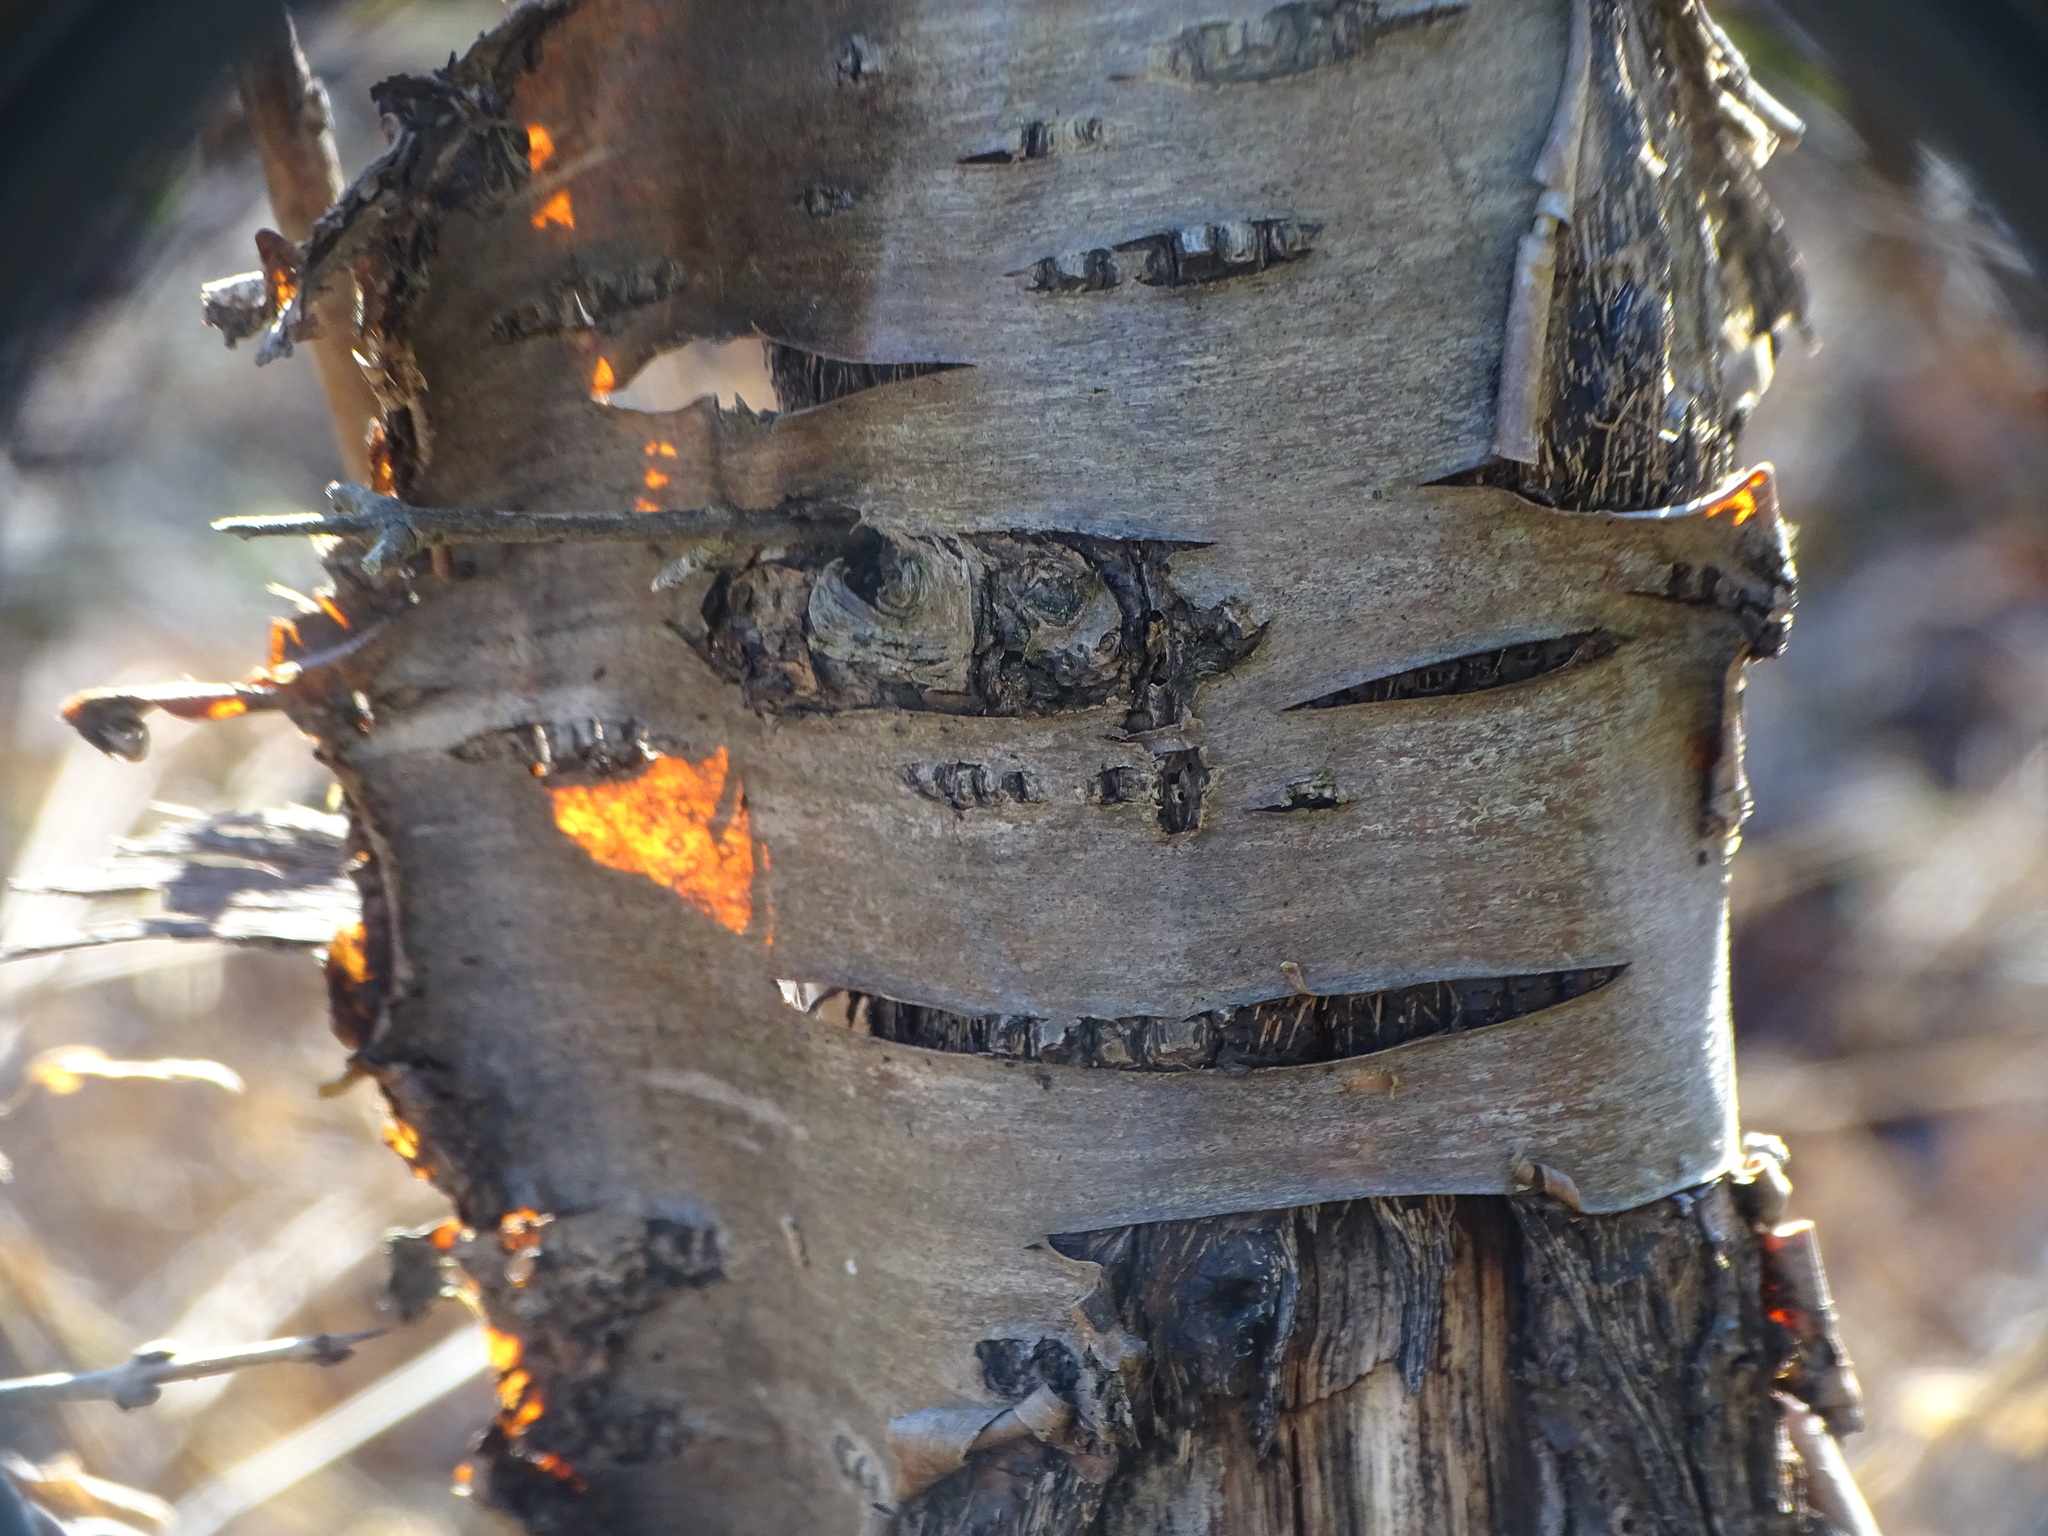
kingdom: Plantae
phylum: Tracheophyta
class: Magnoliopsida
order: Rosales
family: Rhamnaceae
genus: Rhamnus
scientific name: Rhamnus cathartica
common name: Common buckthorn
